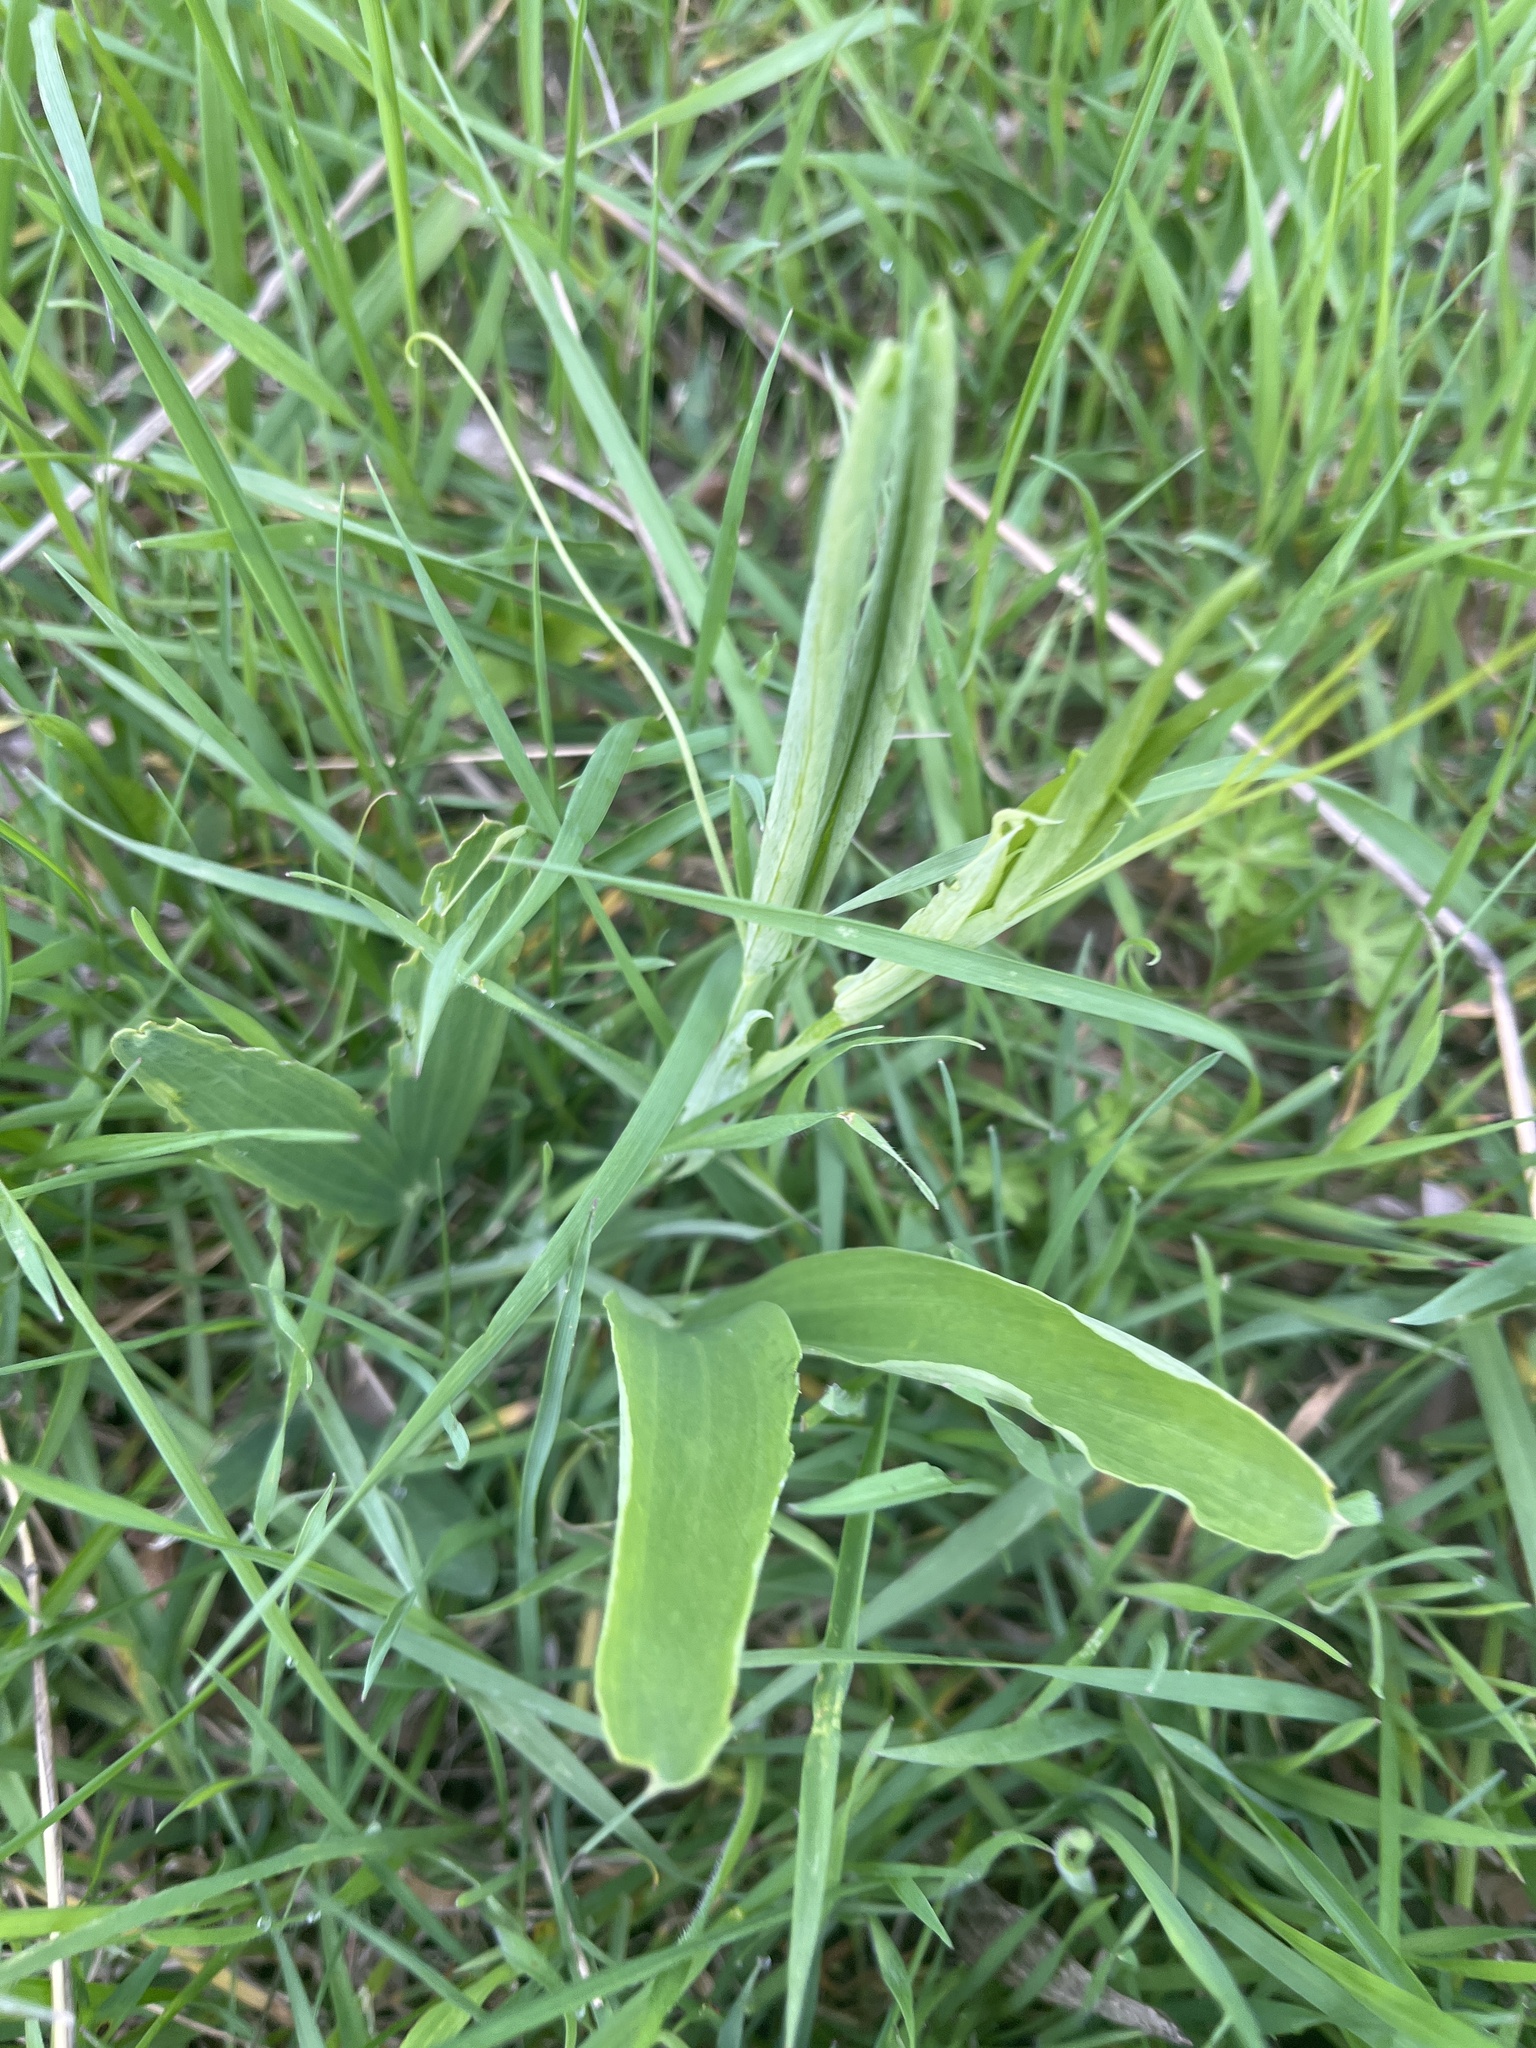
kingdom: Plantae
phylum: Tracheophyta
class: Magnoliopsida
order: Fabales
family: Fabaceae
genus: Lathyrus
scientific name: Lathyrus latifolius
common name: Perennial pea
